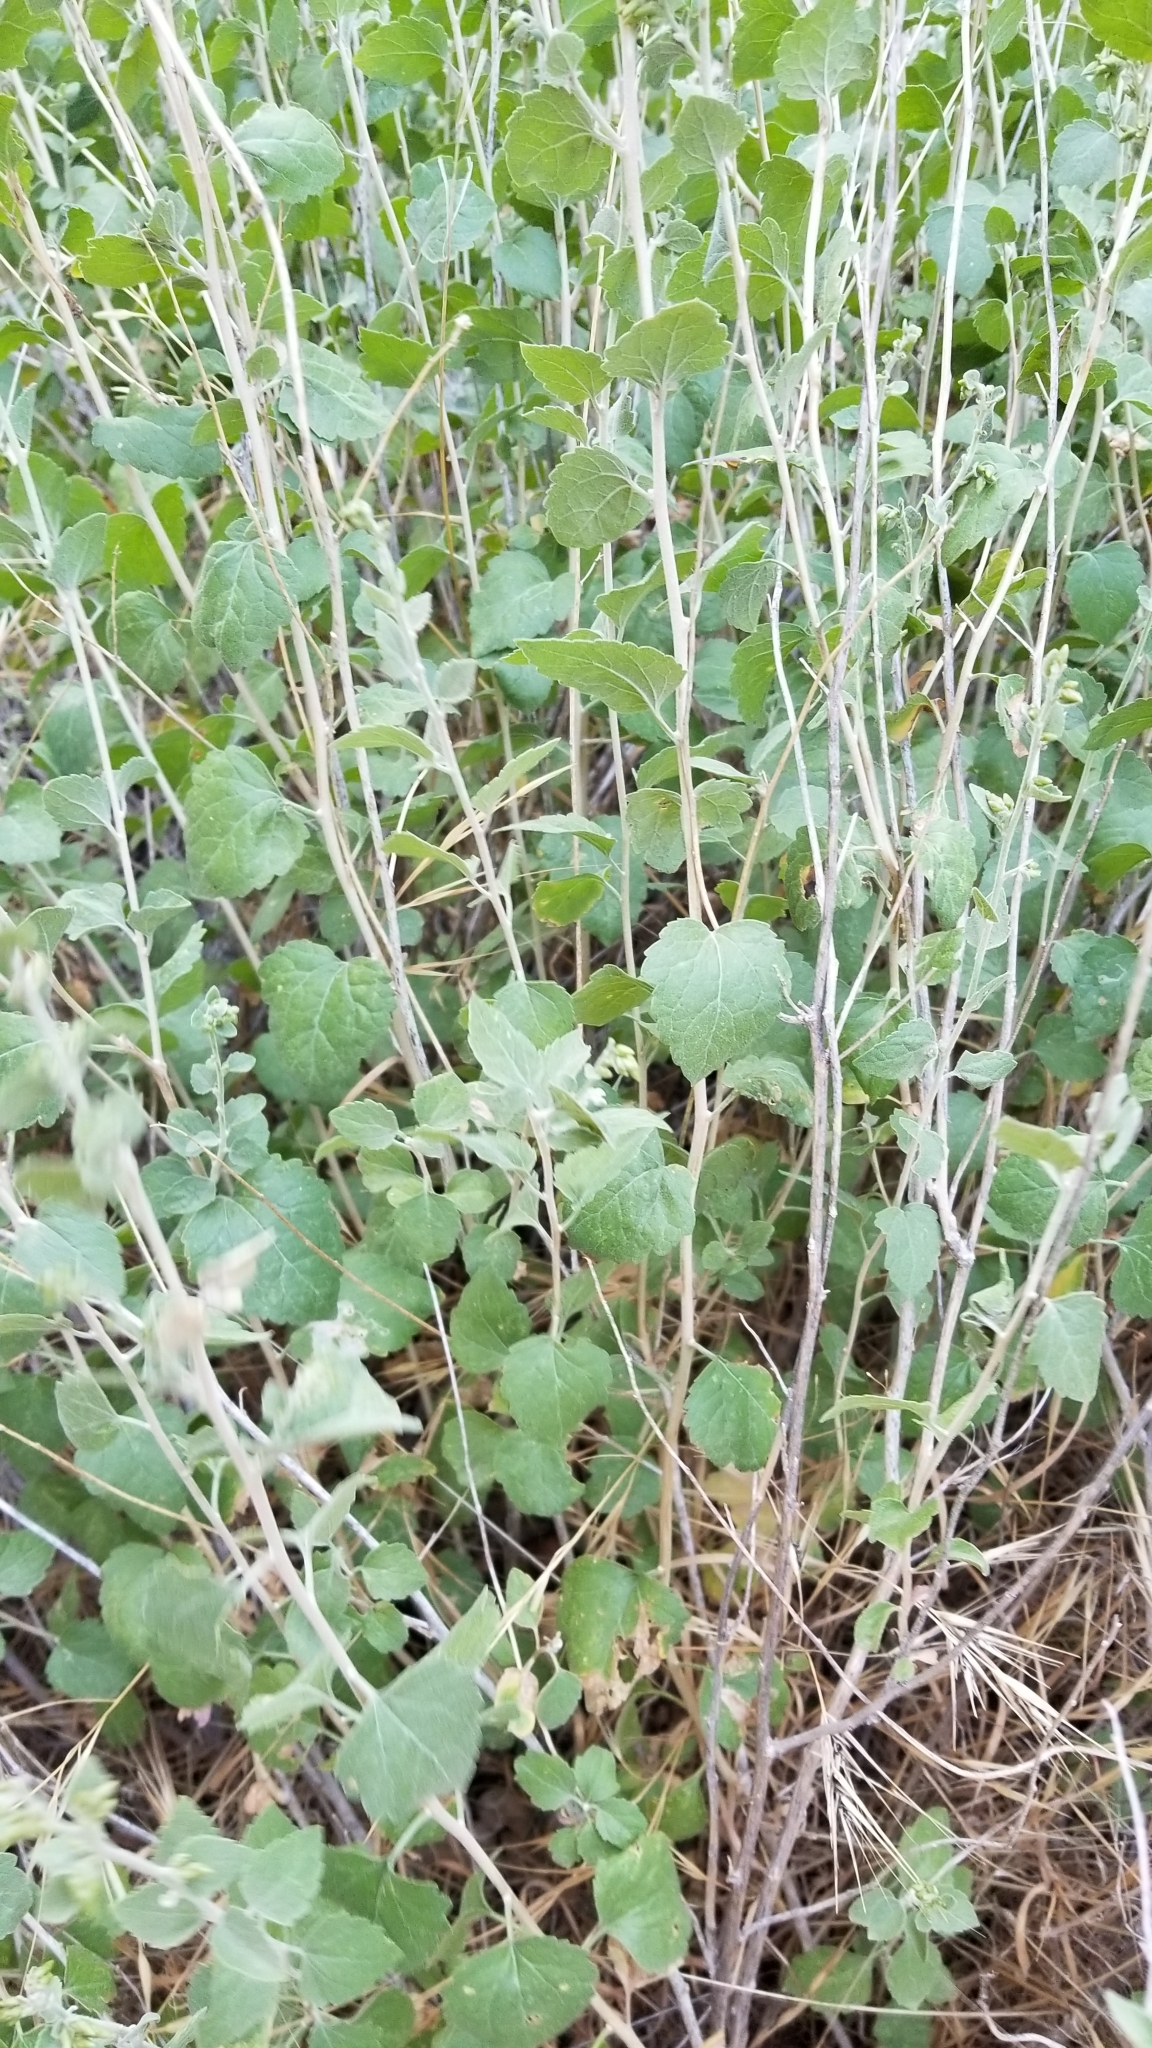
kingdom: Plantae
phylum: Tracheophyta
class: Magnoliopsida
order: Asterales
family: Asteraceae
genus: Brickellia
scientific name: Brickellia californica
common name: California brickellbush
